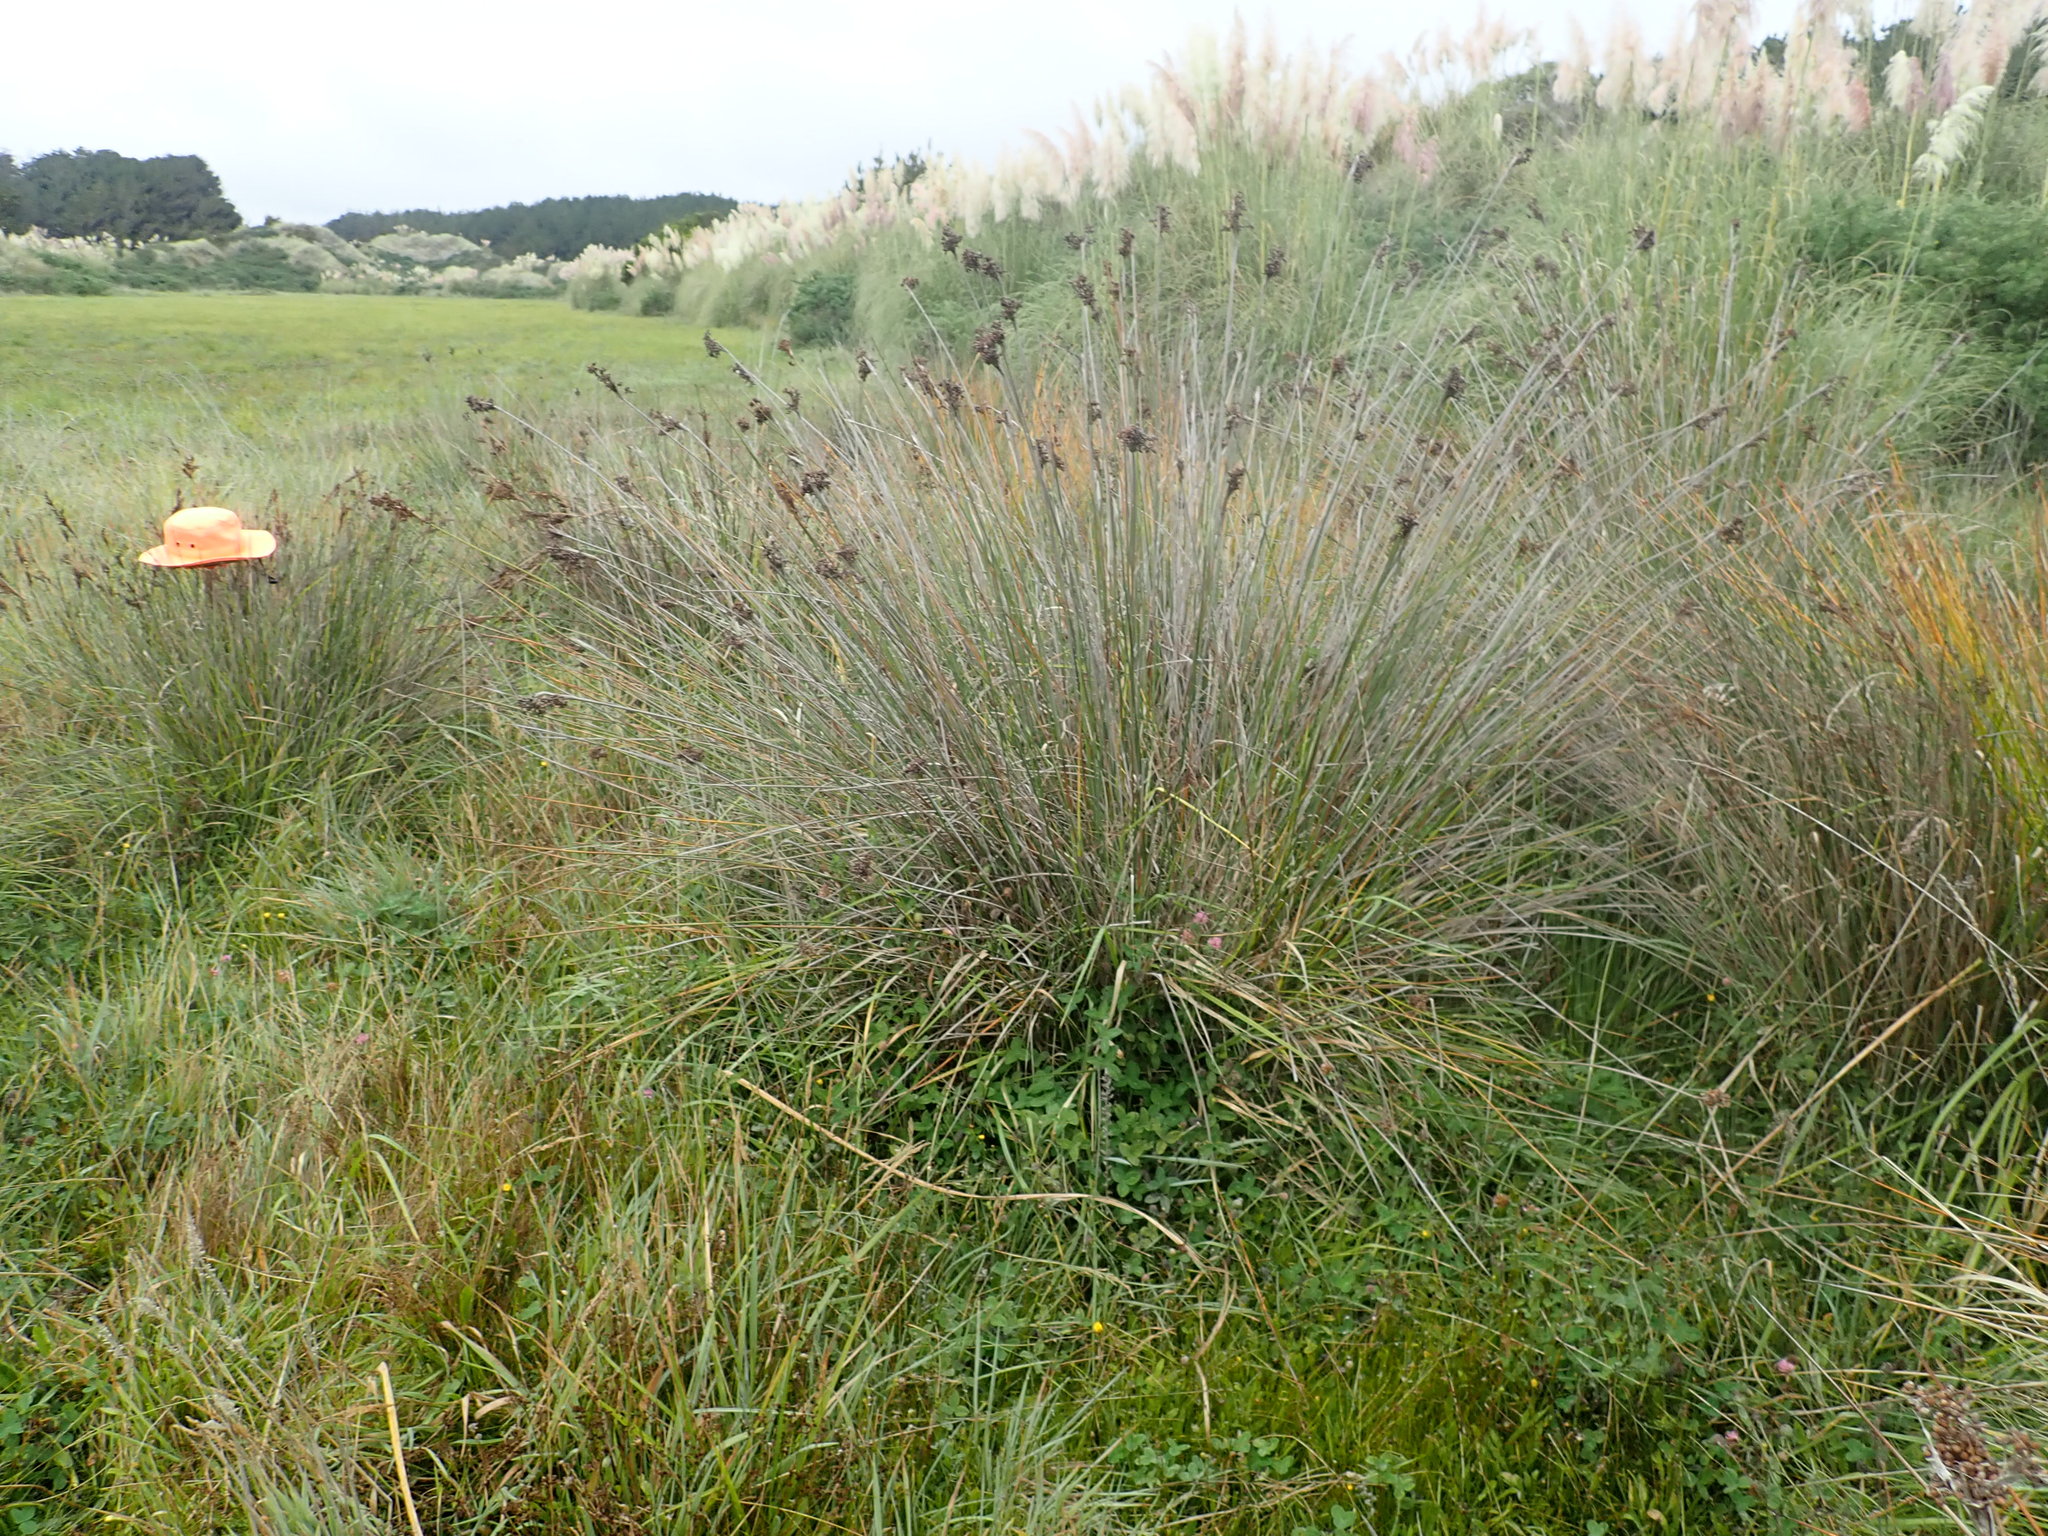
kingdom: Plantae
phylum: Tracheophyta
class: Liliopsida
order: Poales
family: Juncaceae
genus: Juncus
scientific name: Juncus acutus
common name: Sharp rush
